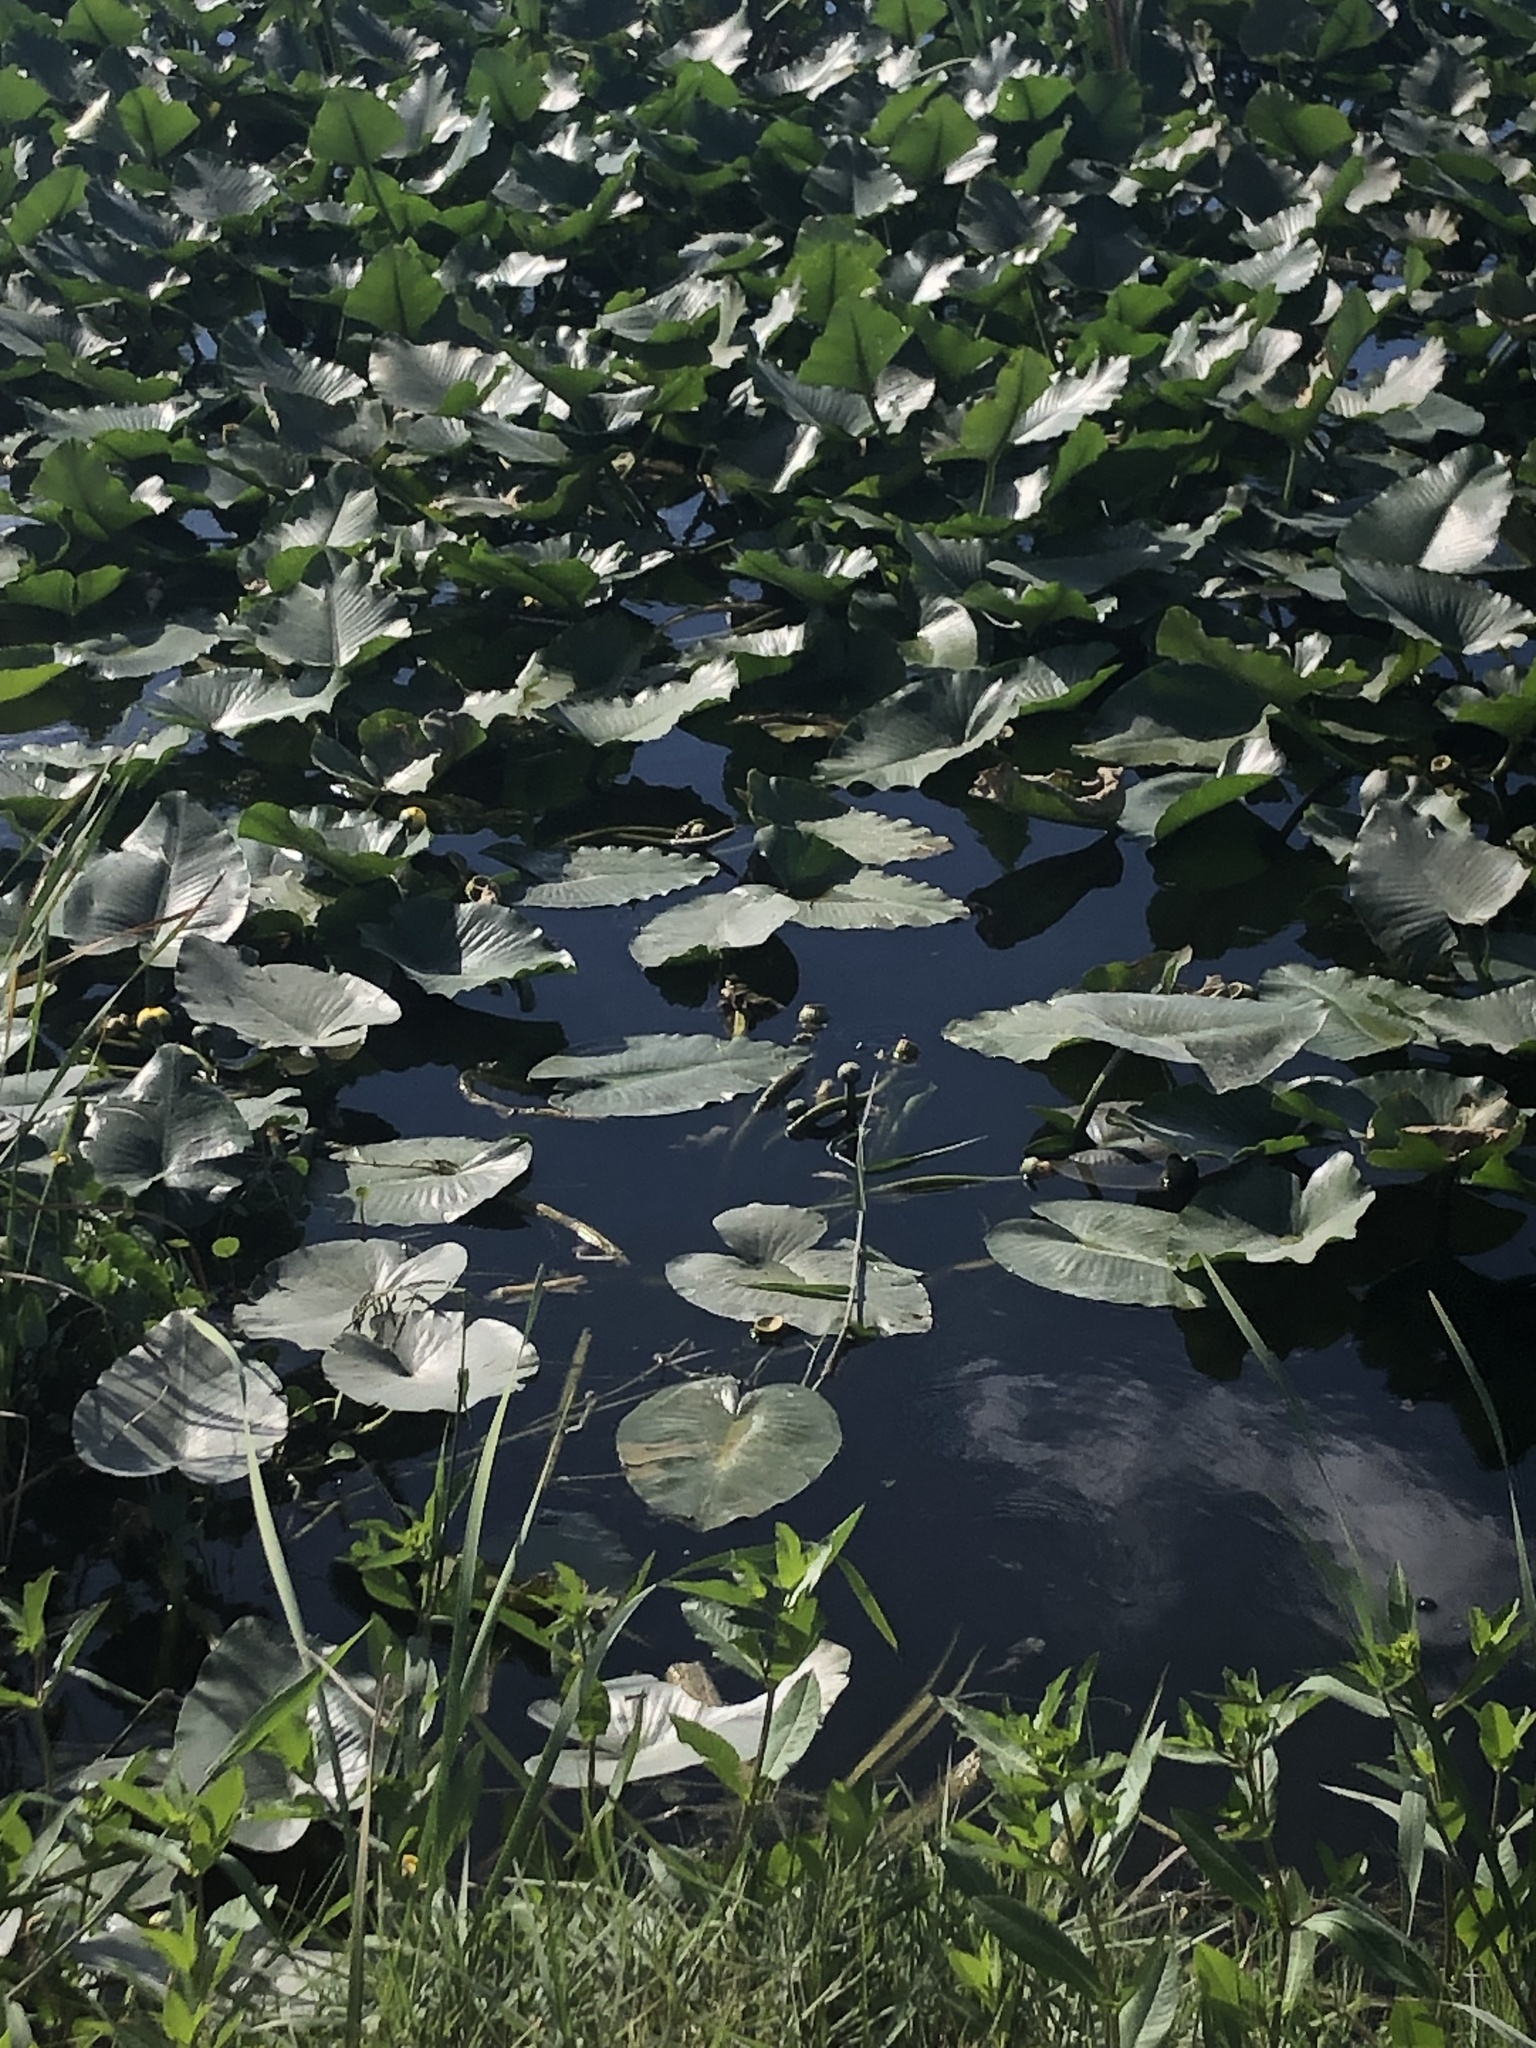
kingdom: Plantae
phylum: Tracheophyta
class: Magnoliopsida
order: Nymphaeales
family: Nymphaeaceae
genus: Nuphar
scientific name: Nuphar advena
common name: Spatter-dock
